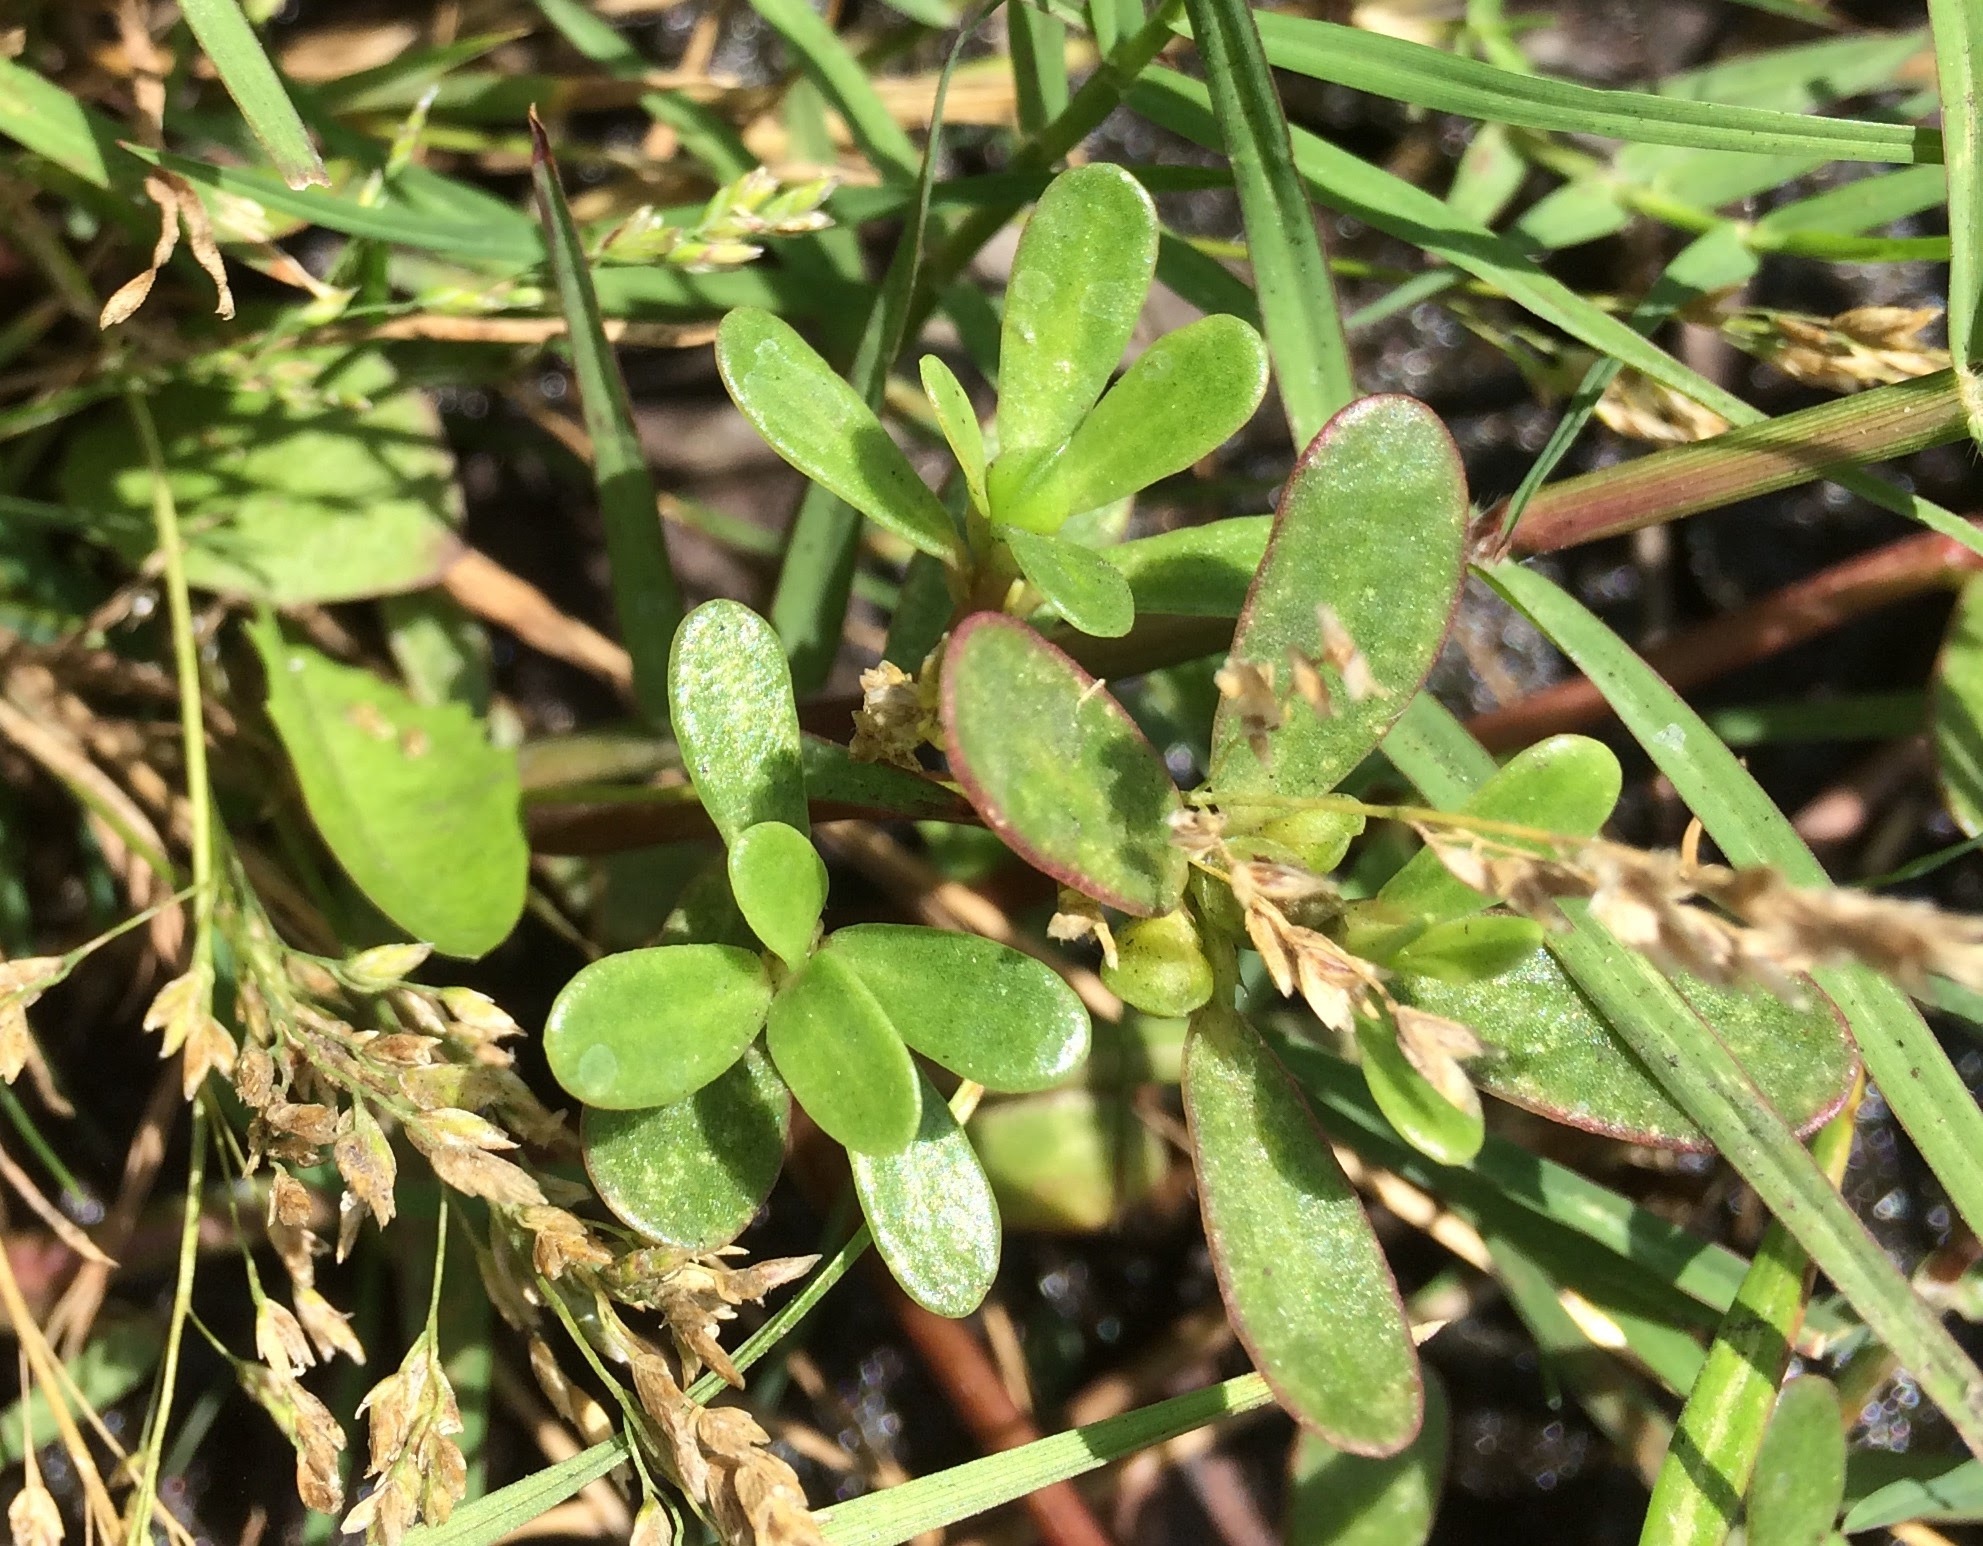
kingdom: Plantae
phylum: Tracheophyta
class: Magnoliopsida
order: Caryophyllales
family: Portulacaceae
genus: Portulaca
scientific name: Portulaca oleracea
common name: Common purslane
